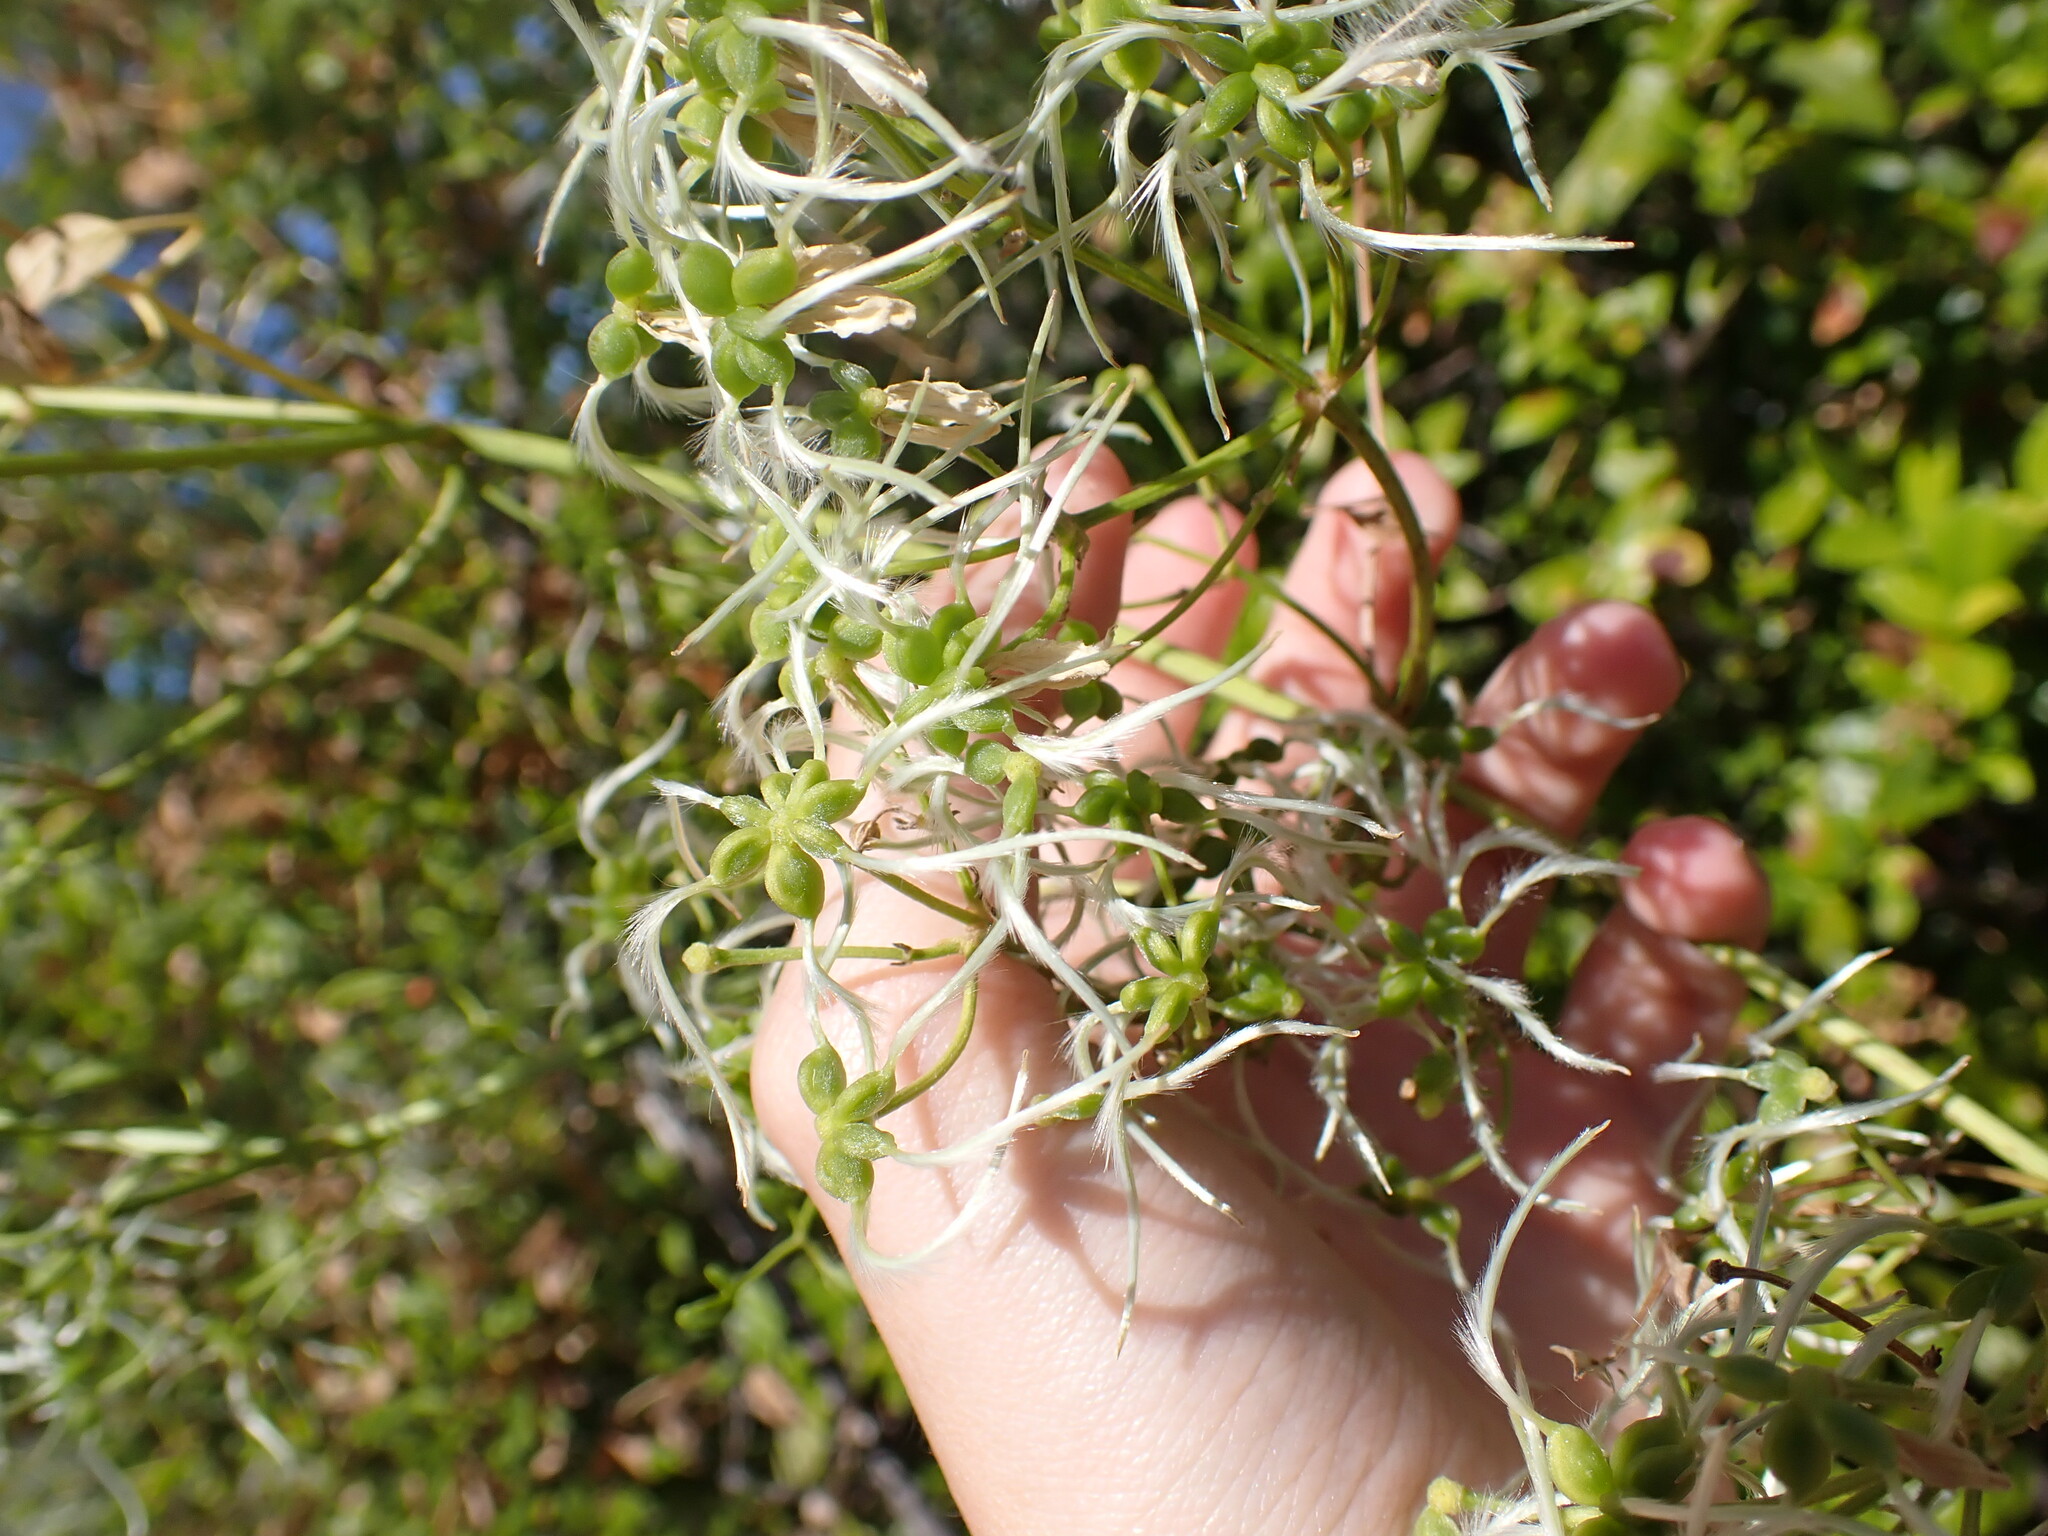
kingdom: Plantae
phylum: Tracheophyta
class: Magnoliopsida
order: Ranunculales
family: Ranunculaceae
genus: Clematis
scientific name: Clematis flammula
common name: Virgin's-bower
